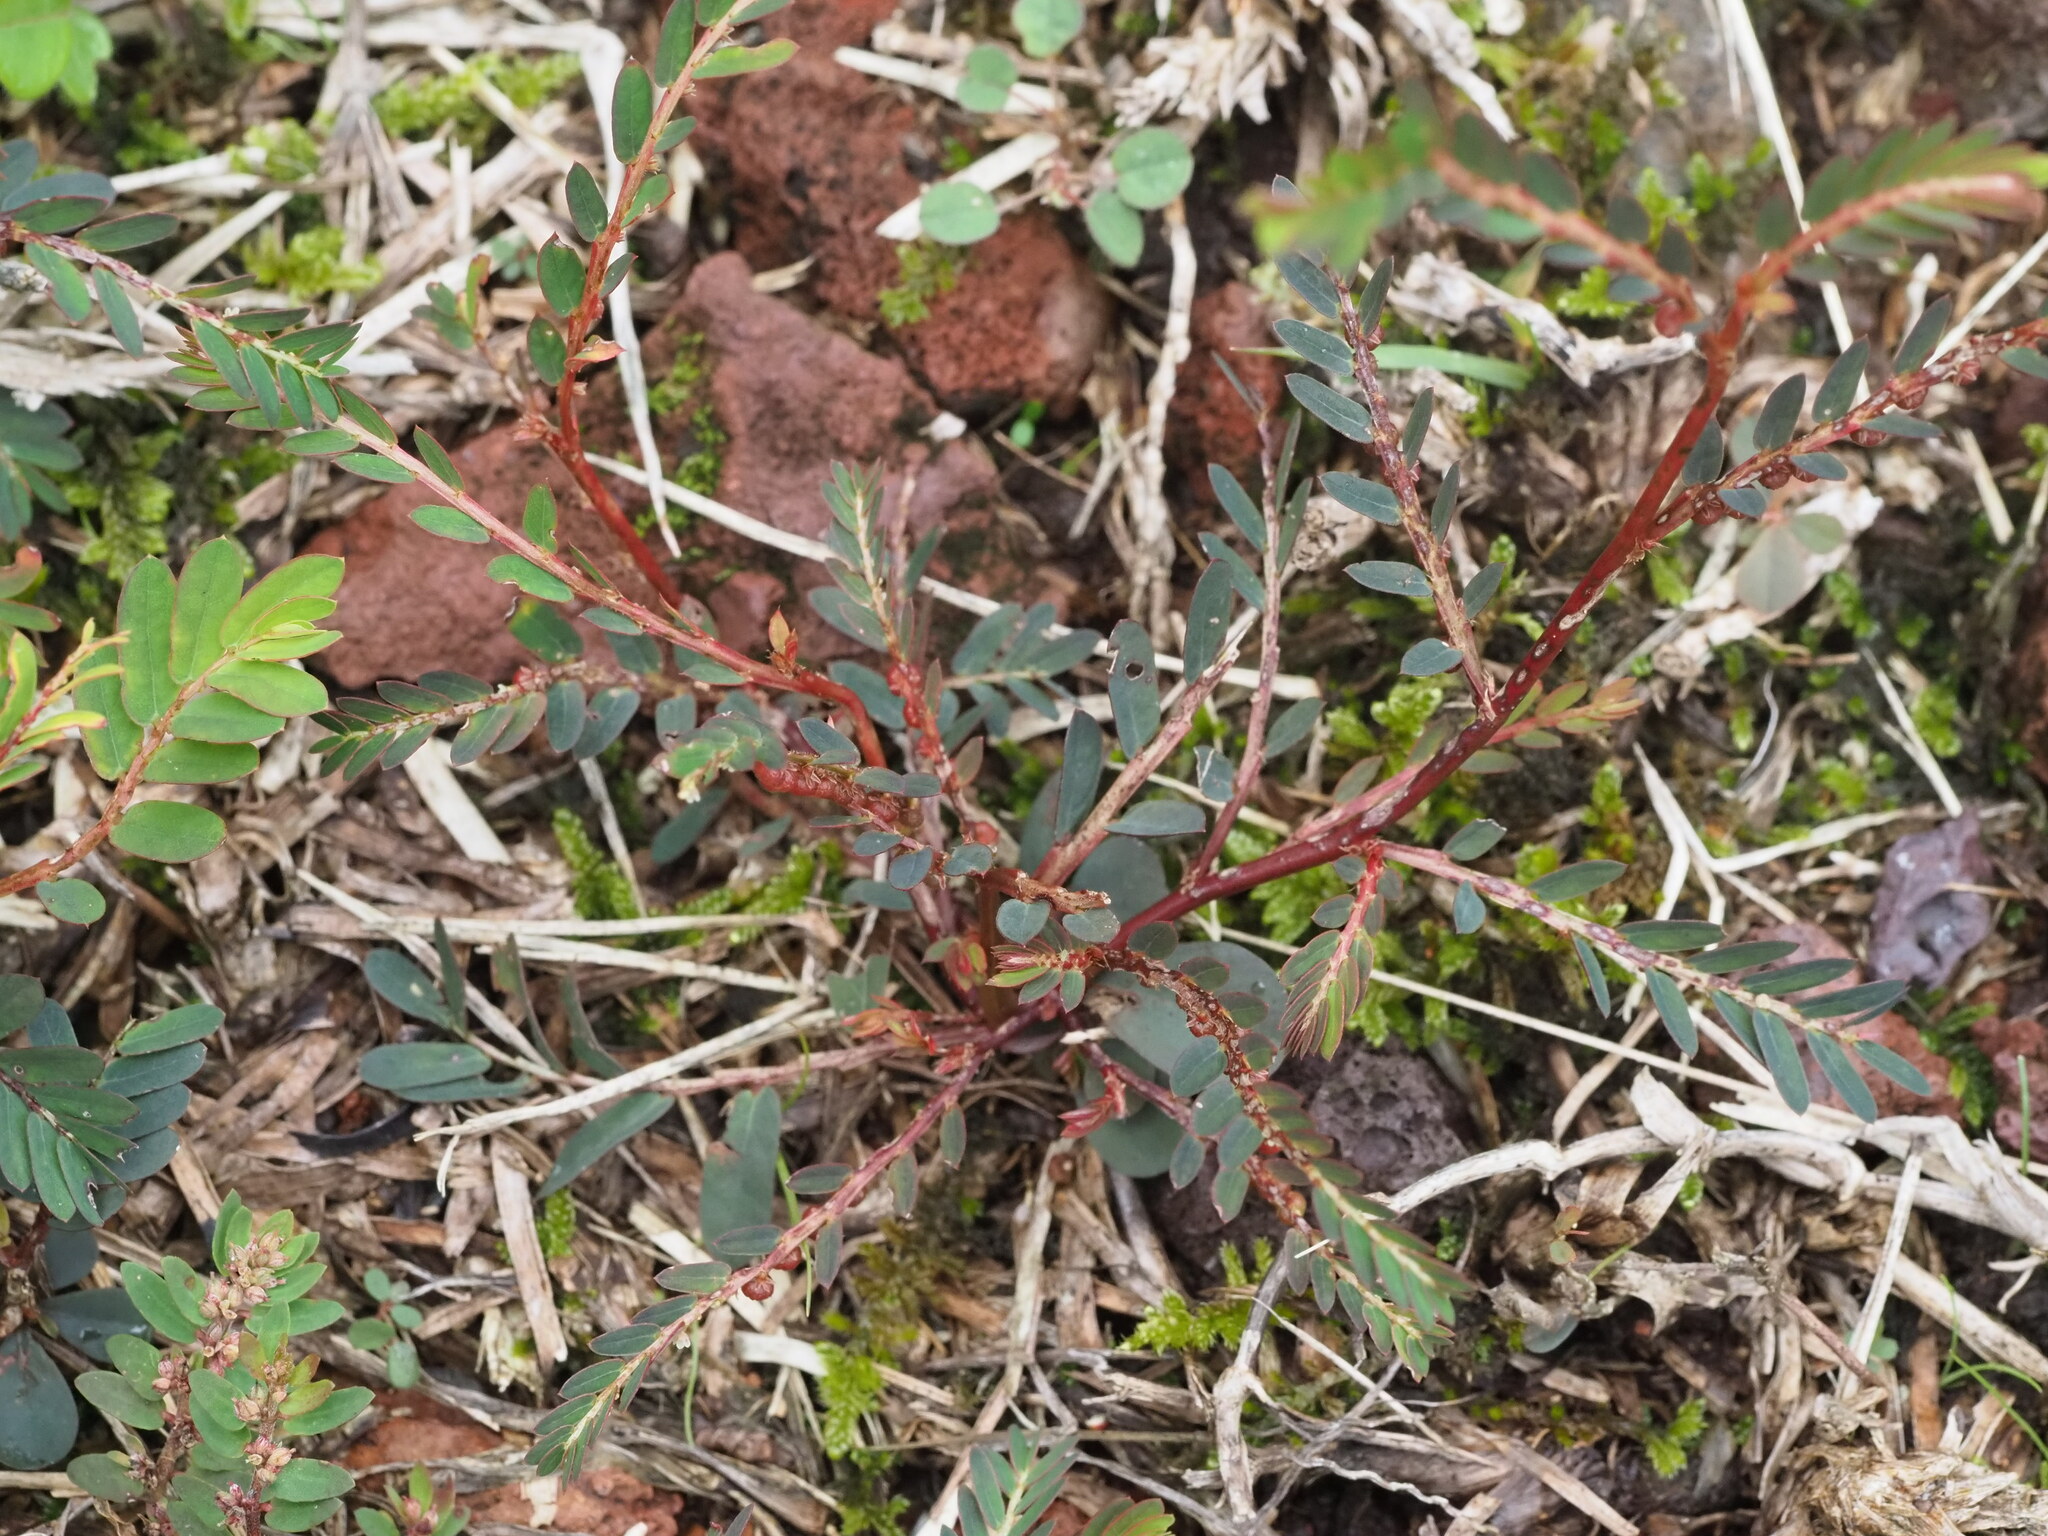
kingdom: Plantae
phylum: Tracheophyta
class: Magnoliopsida
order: Malpighiales
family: Phyllanthaceae
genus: Phyllanthus
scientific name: Phyllanthus urinaria
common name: Chamber bitter
